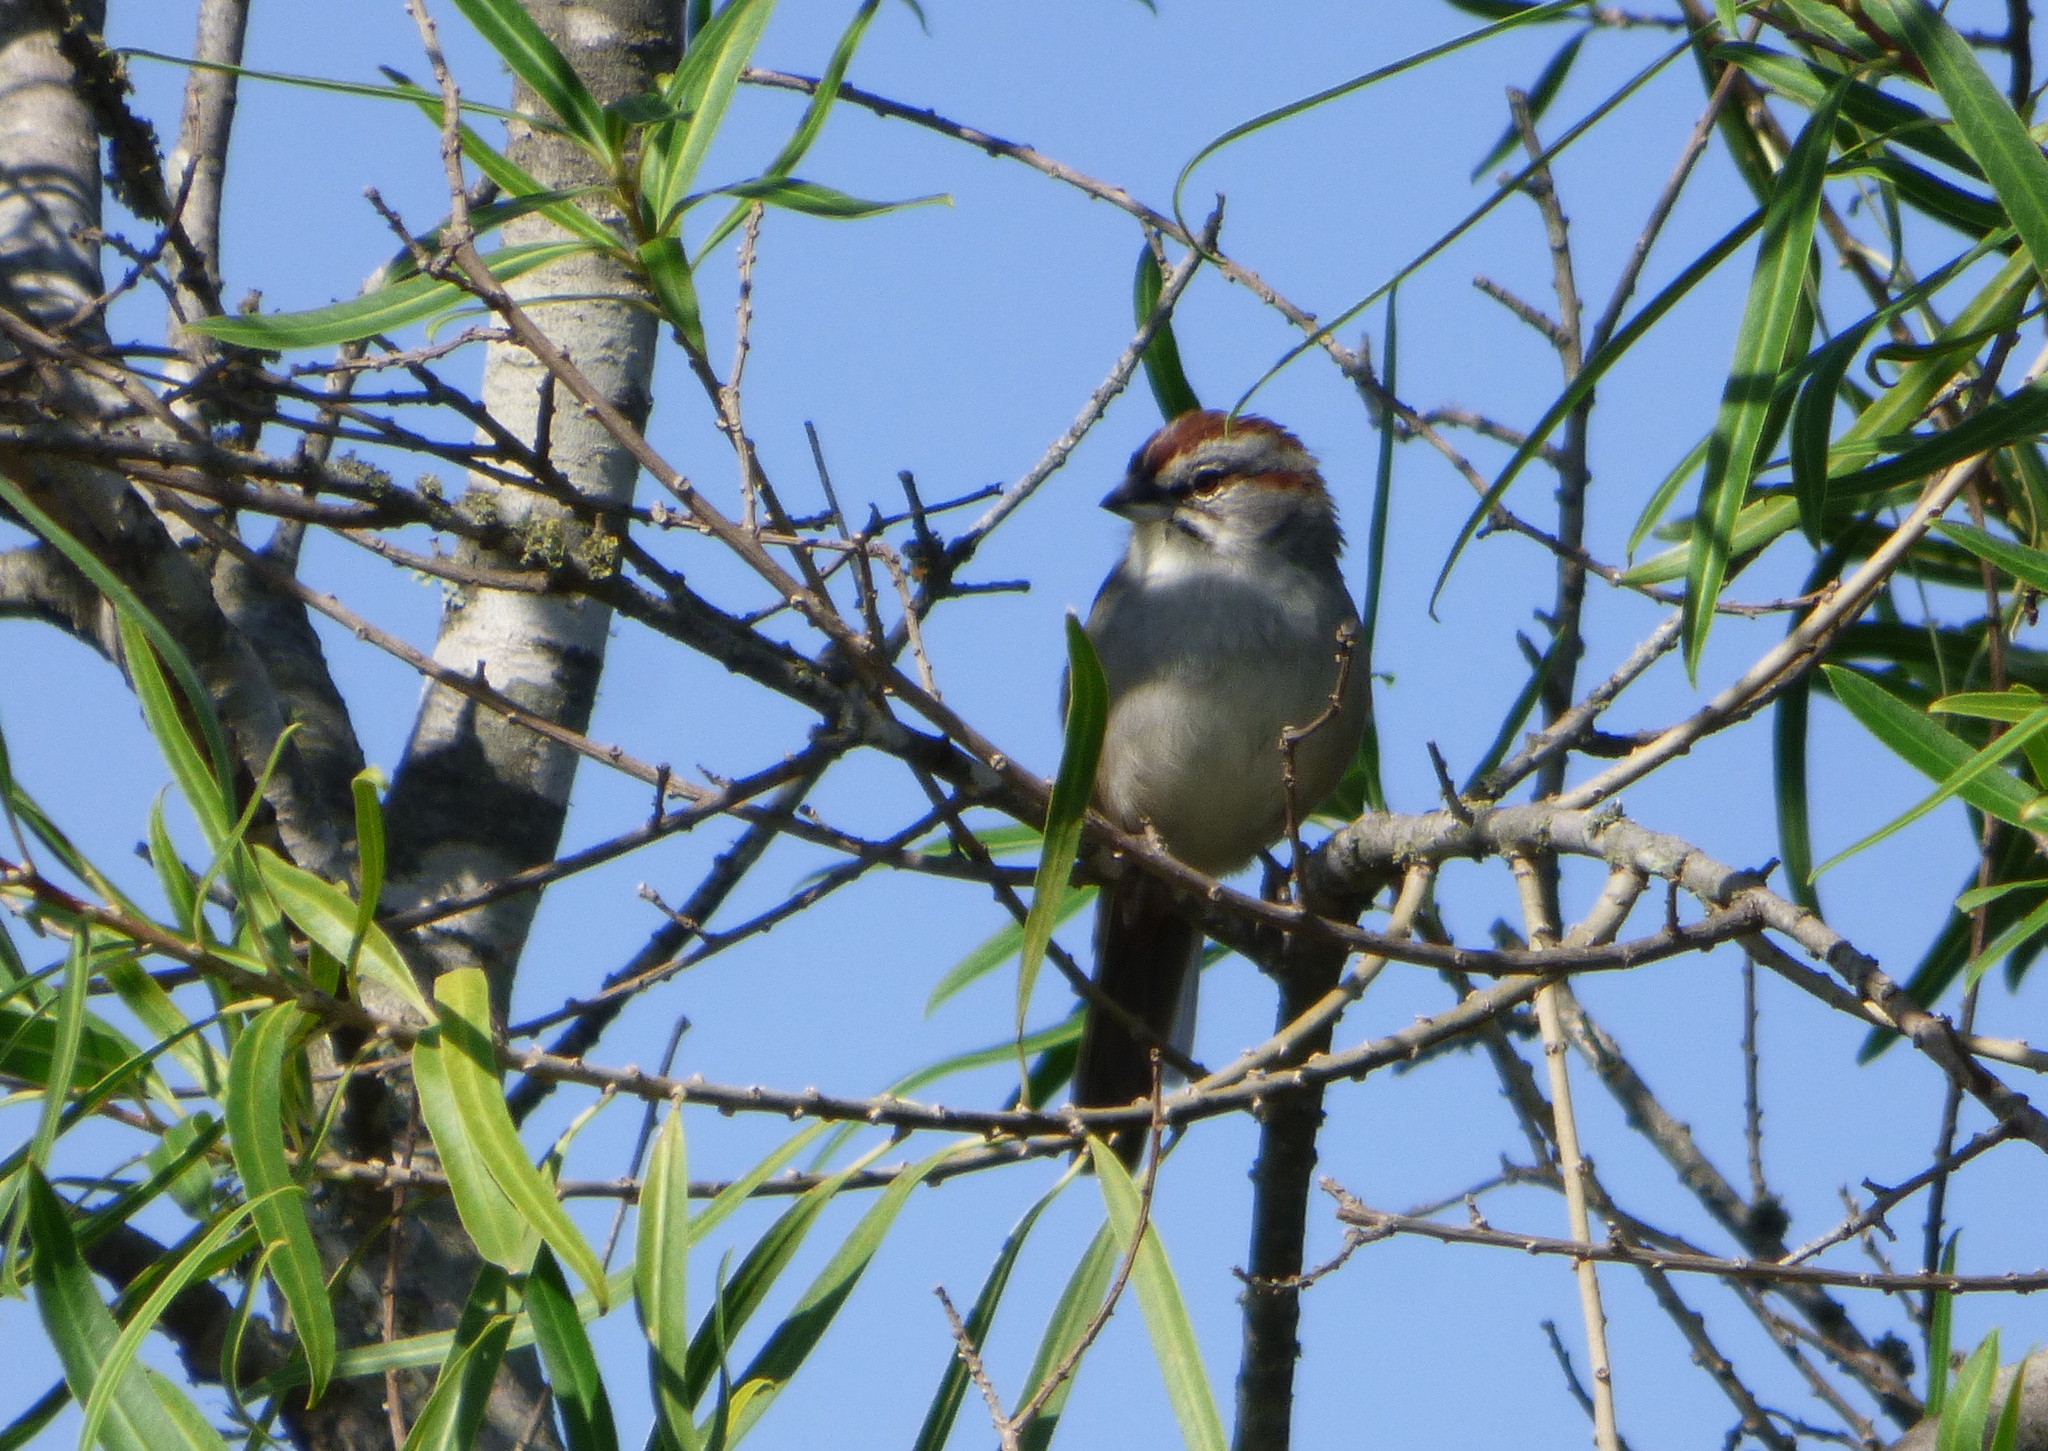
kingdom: Animalia
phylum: Chordata
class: Aves
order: Passeriformes
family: Passerellidae
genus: Rhynchospiza
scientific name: Rhynchospiza strigiceps
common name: Stripe-capped sparrow
